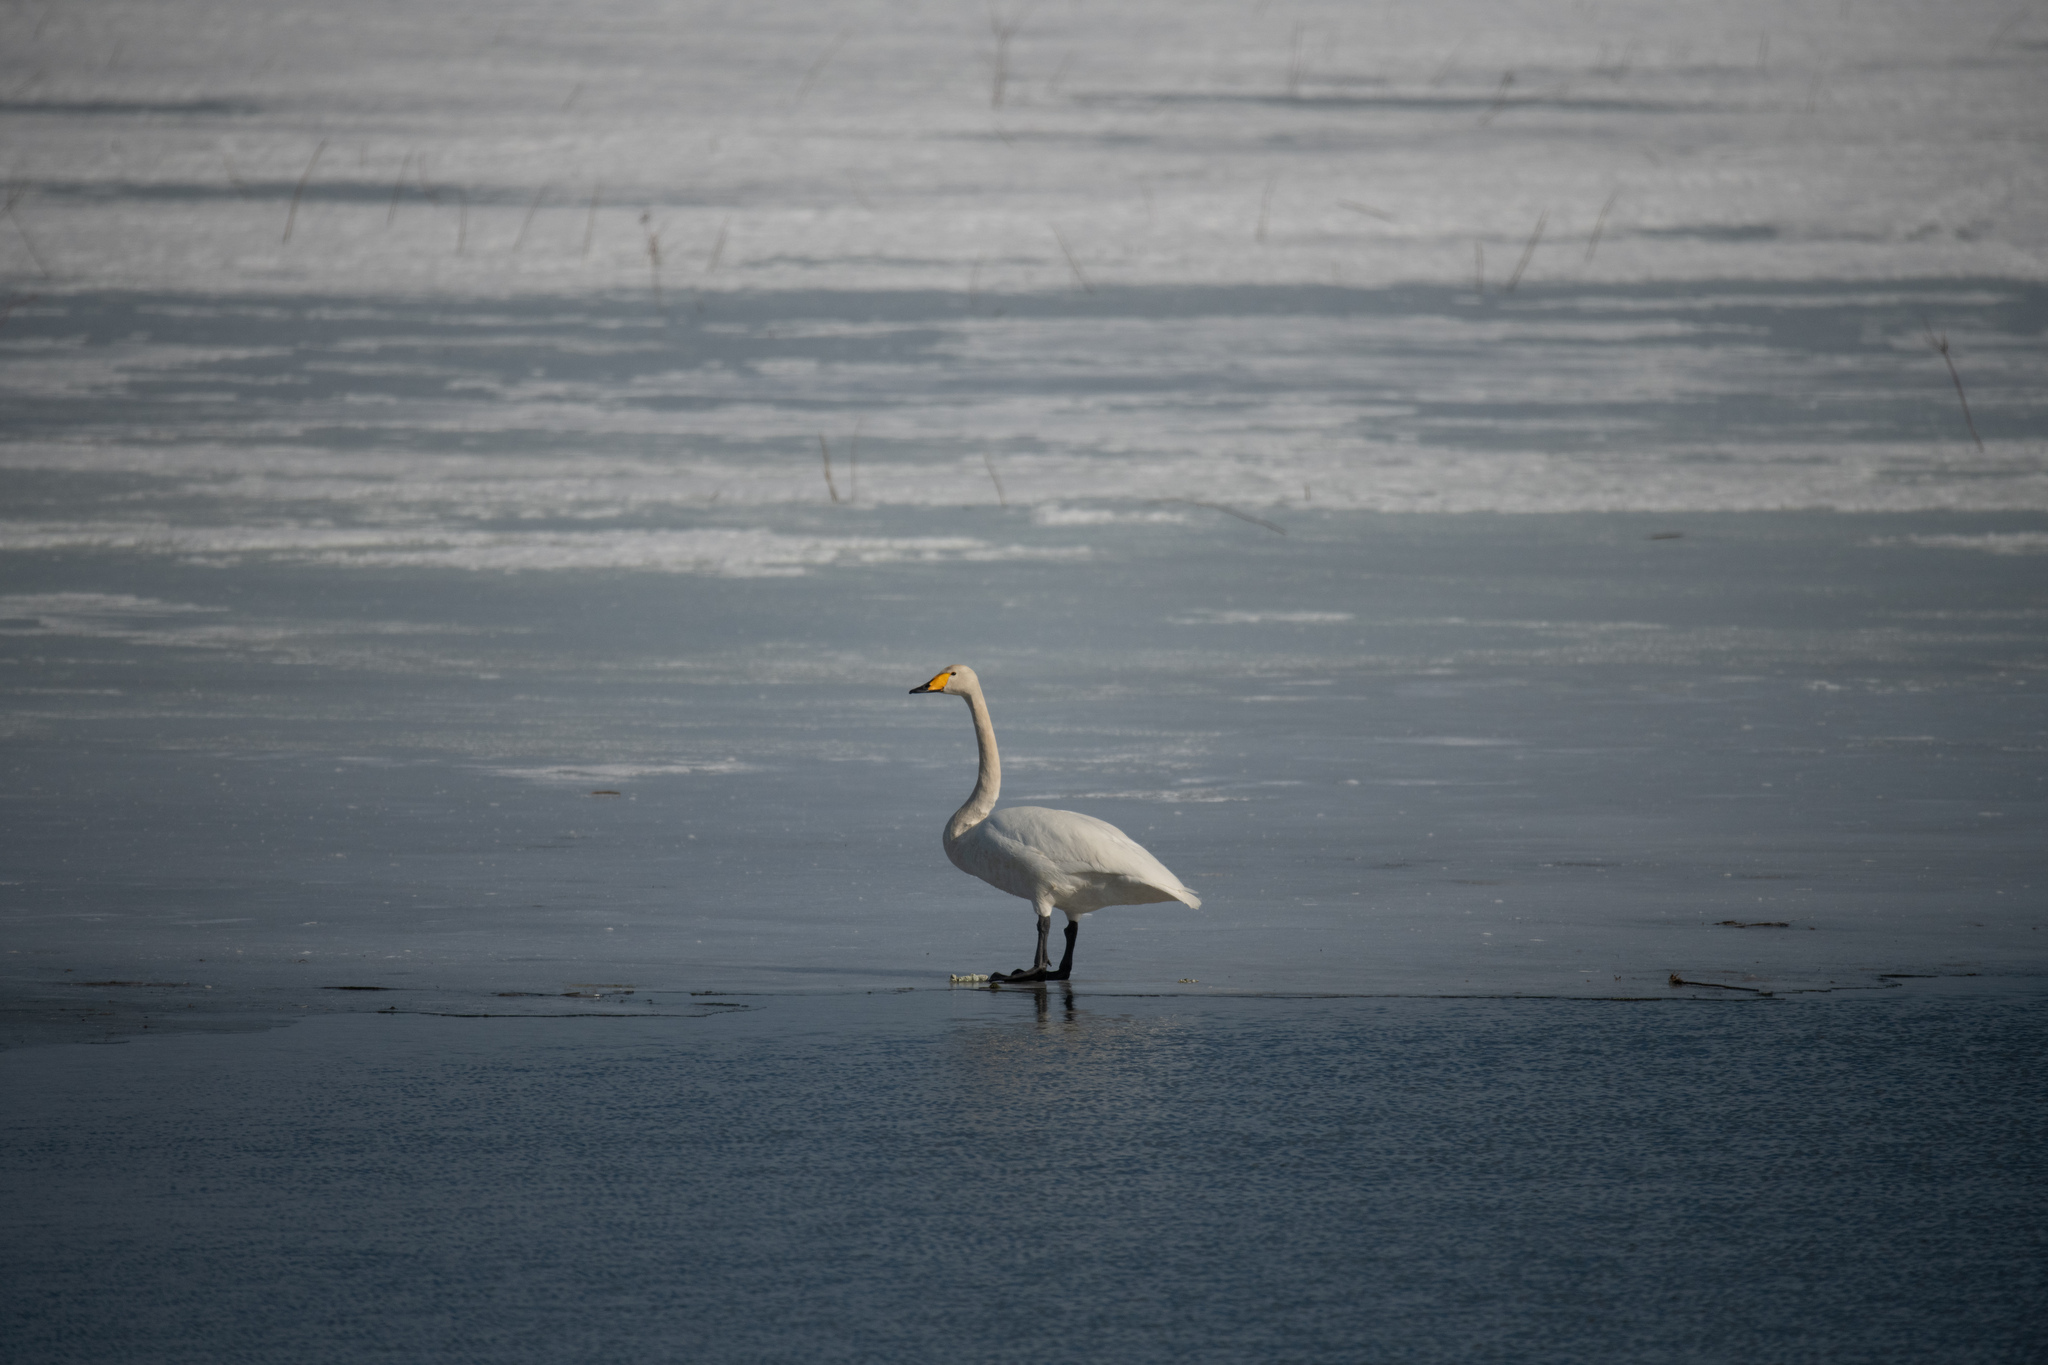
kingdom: Animalia
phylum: Chordata
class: Aves
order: Anseriformes
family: Anatidae
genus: Cygnus
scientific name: Cygnus cygnus
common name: Whooper swan
